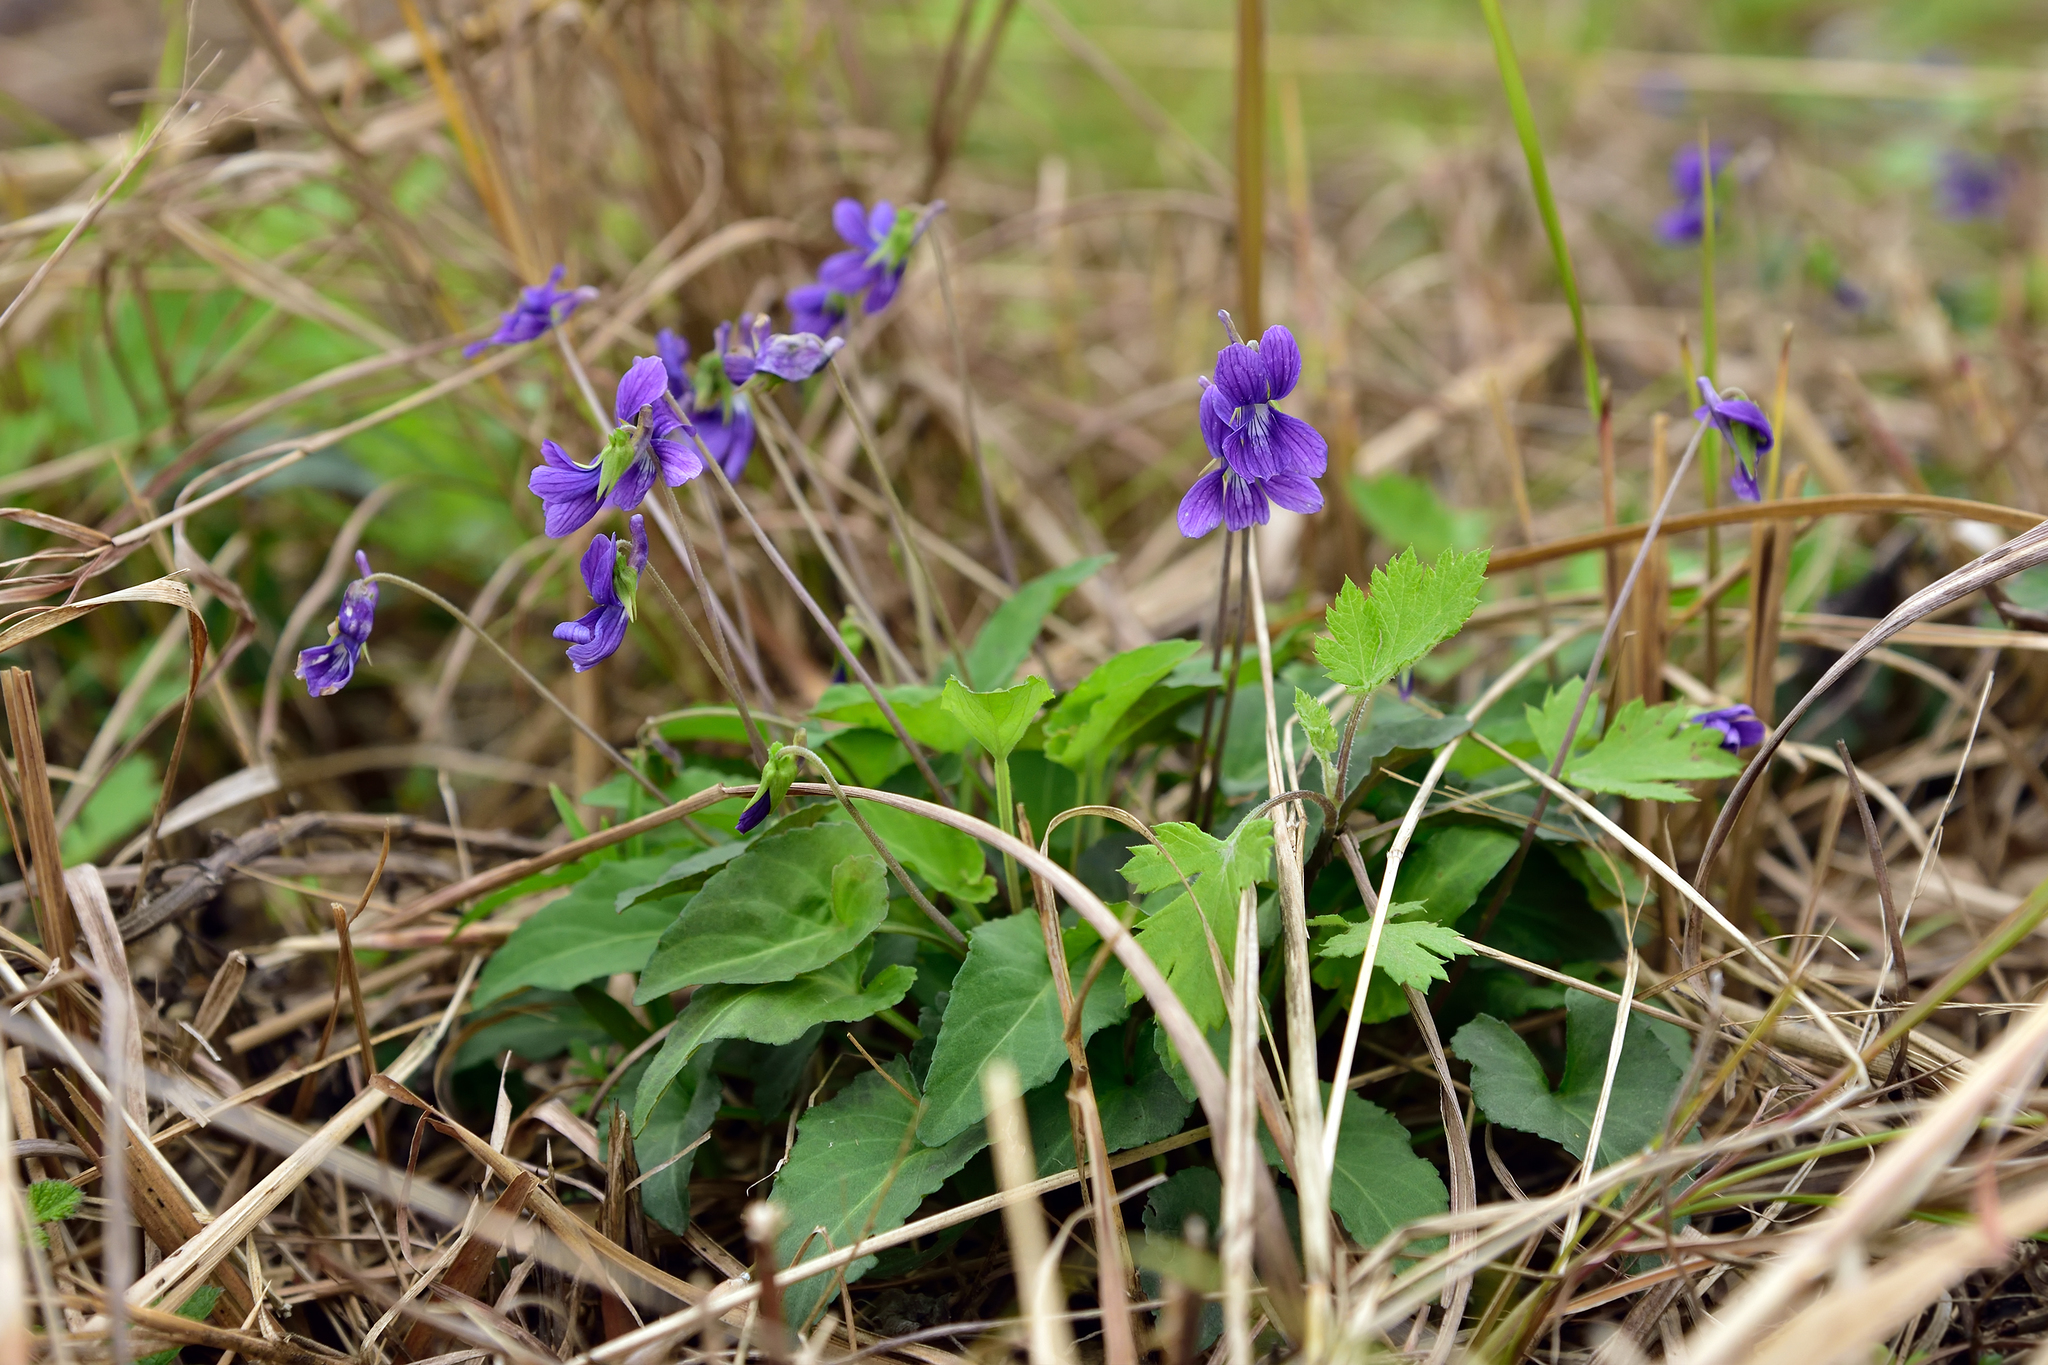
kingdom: Plantae
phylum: Tracheophyta
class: Magnoliopsida
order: Malpighiales
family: Violaceae
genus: Viola
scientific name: Viola
